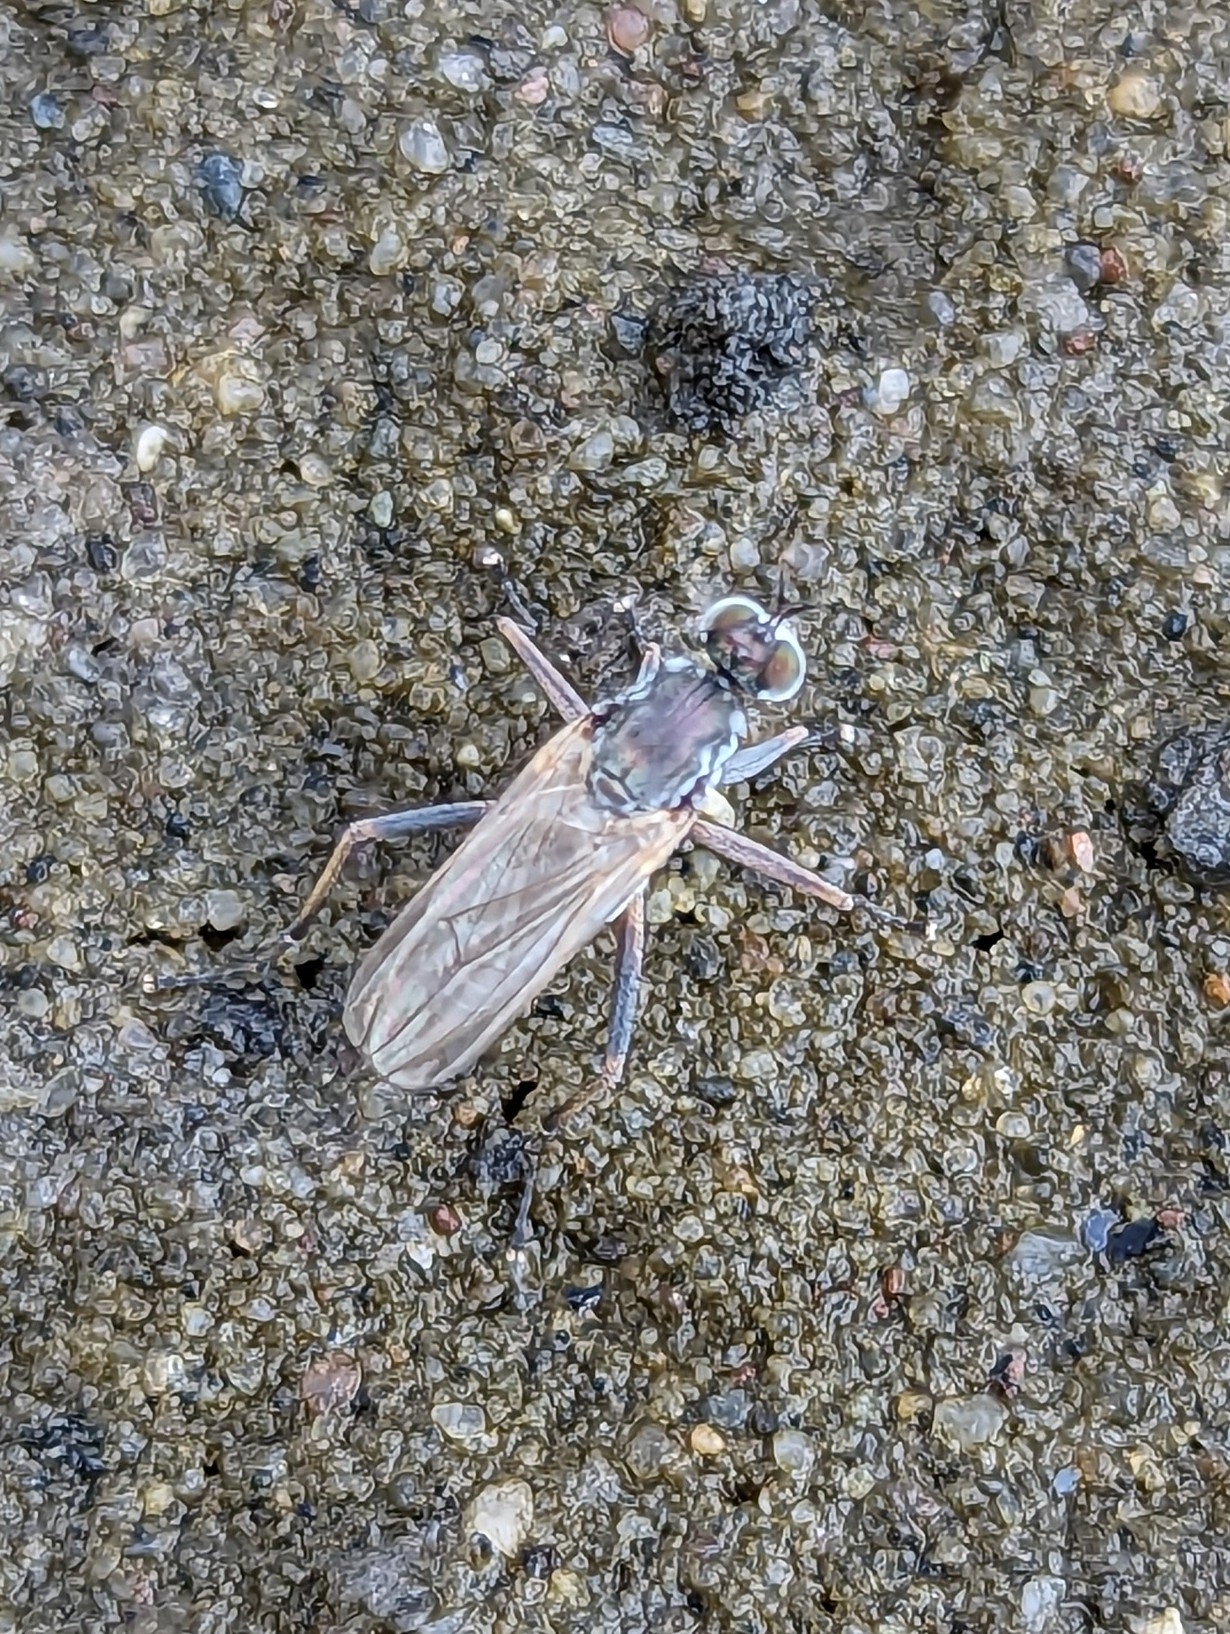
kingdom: Animalia
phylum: Arthropoda
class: Insecta
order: Diptera
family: Dolichopodidae
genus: Hypocharassus
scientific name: Hypocharassus pruinosus
